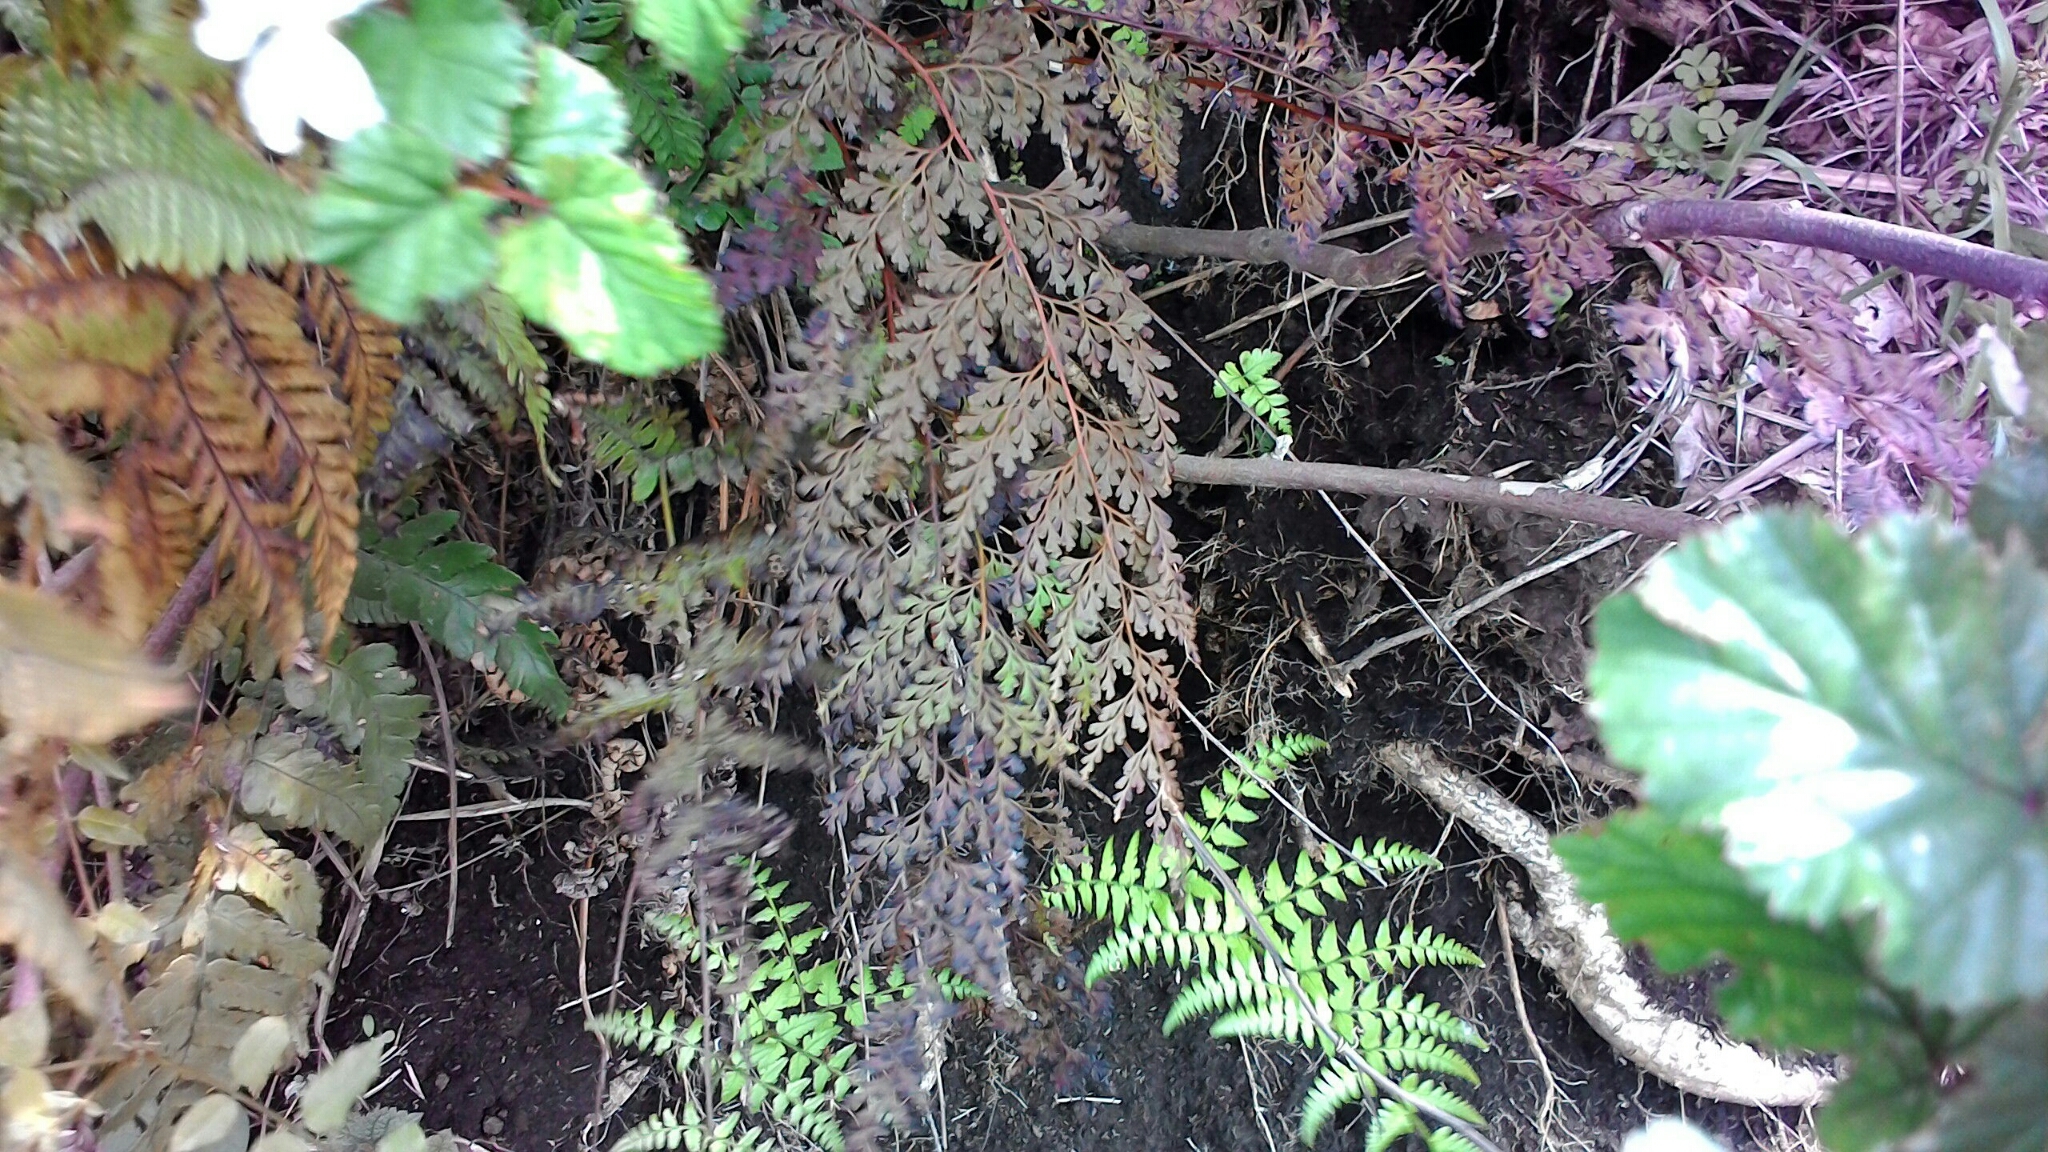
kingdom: Plantae
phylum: Tracheophyta
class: Polypodiopsida
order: Polypodiales
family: Lindsaeaceae
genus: Odontosoria
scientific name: Odontosoria chinensis
